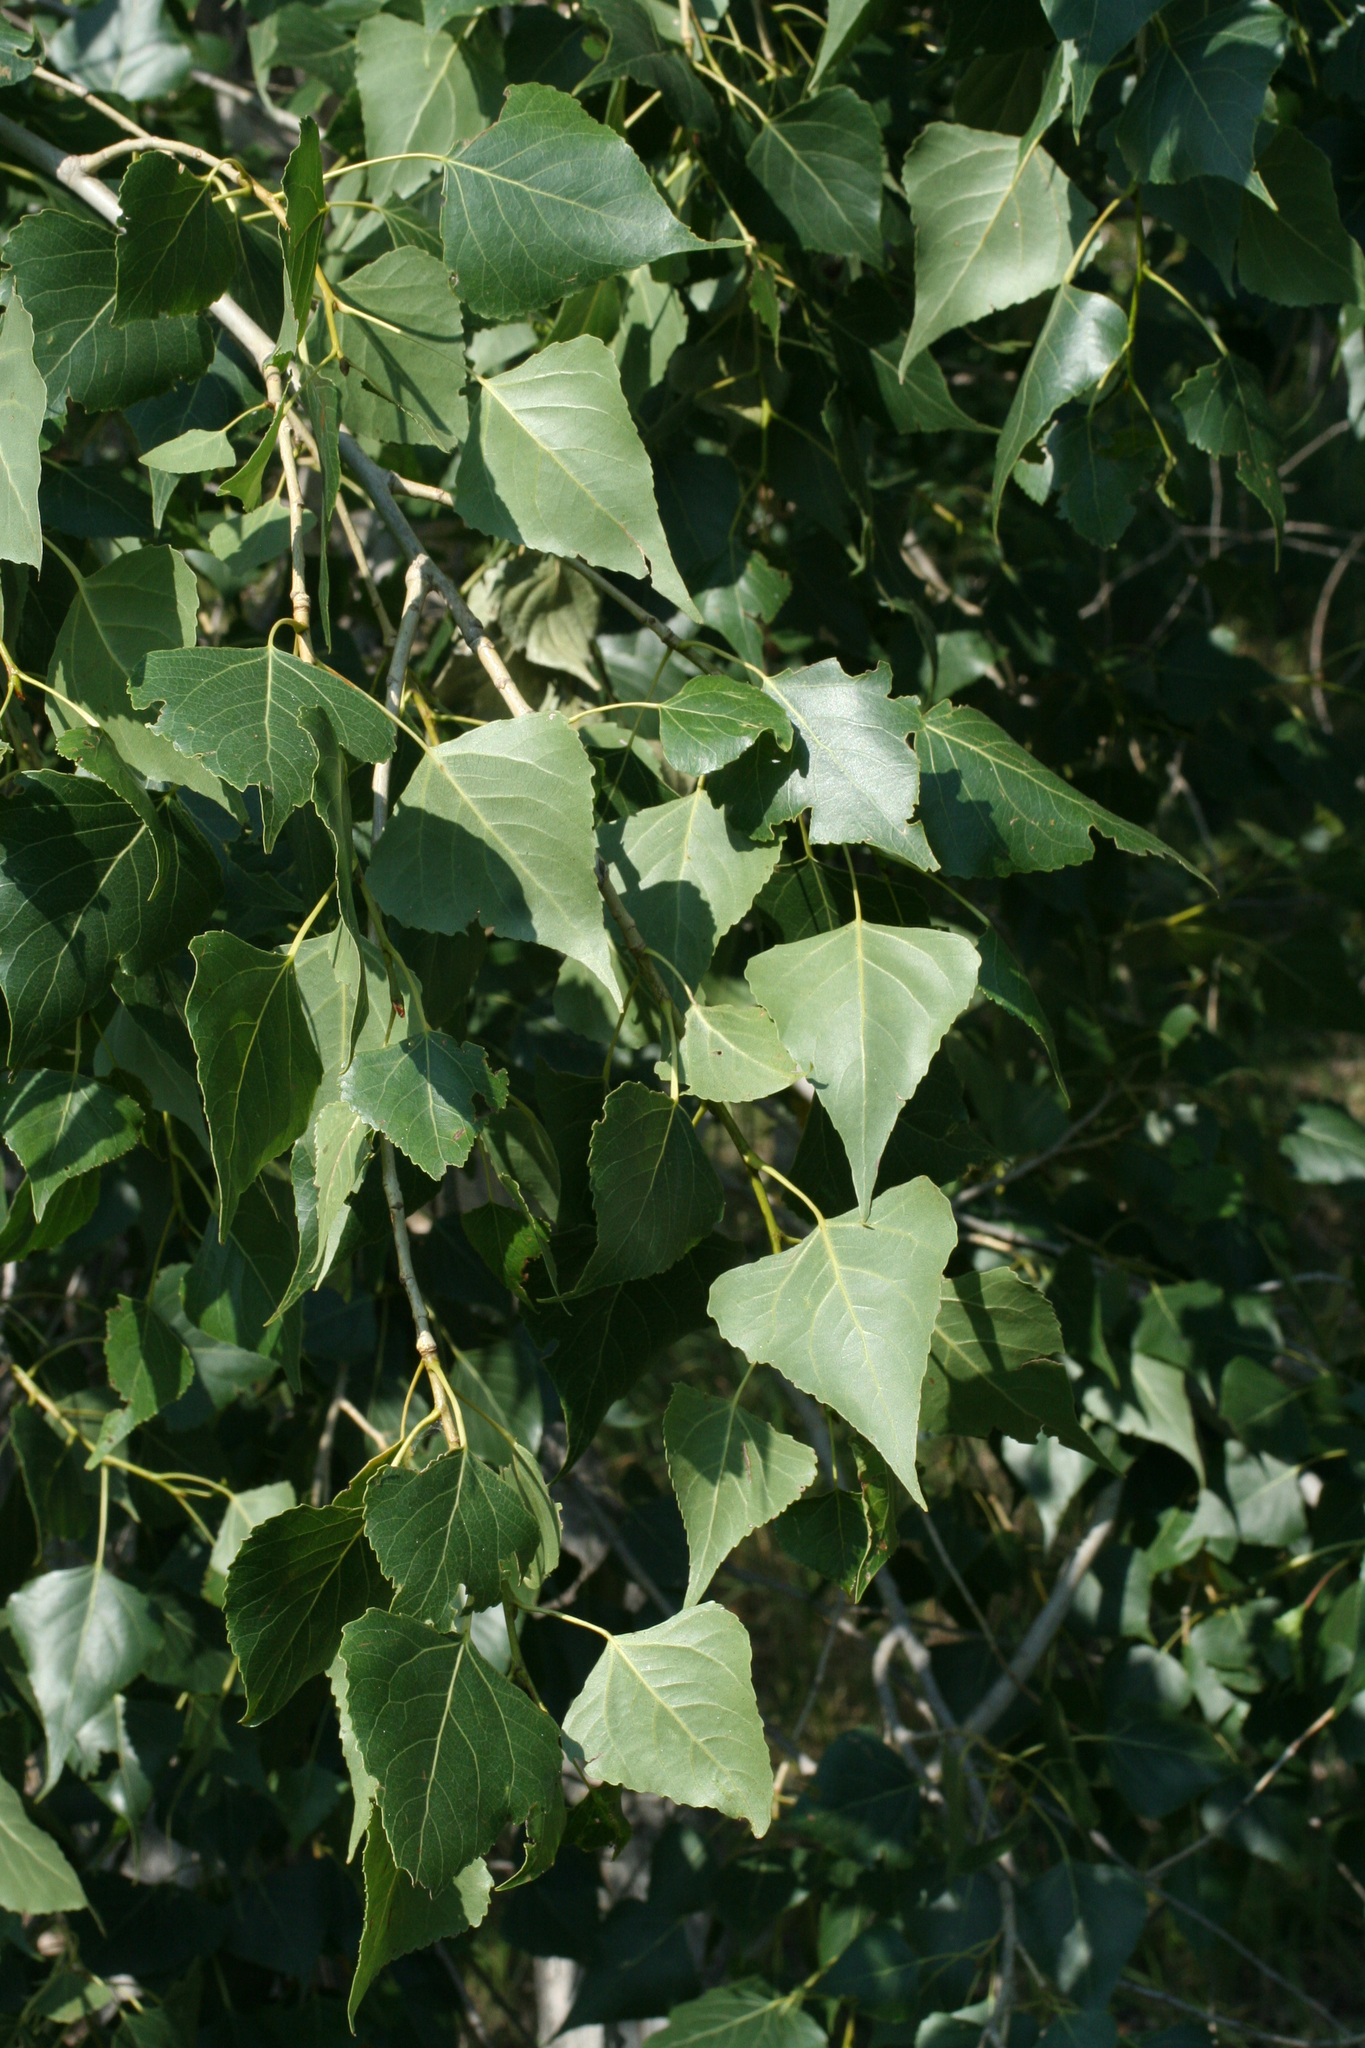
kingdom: Plantae
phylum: Tracheophyta
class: Magnoliopsida
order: Malpighiales
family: Salicaceae
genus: Populus
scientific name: Populus nigra
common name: Black poplar
